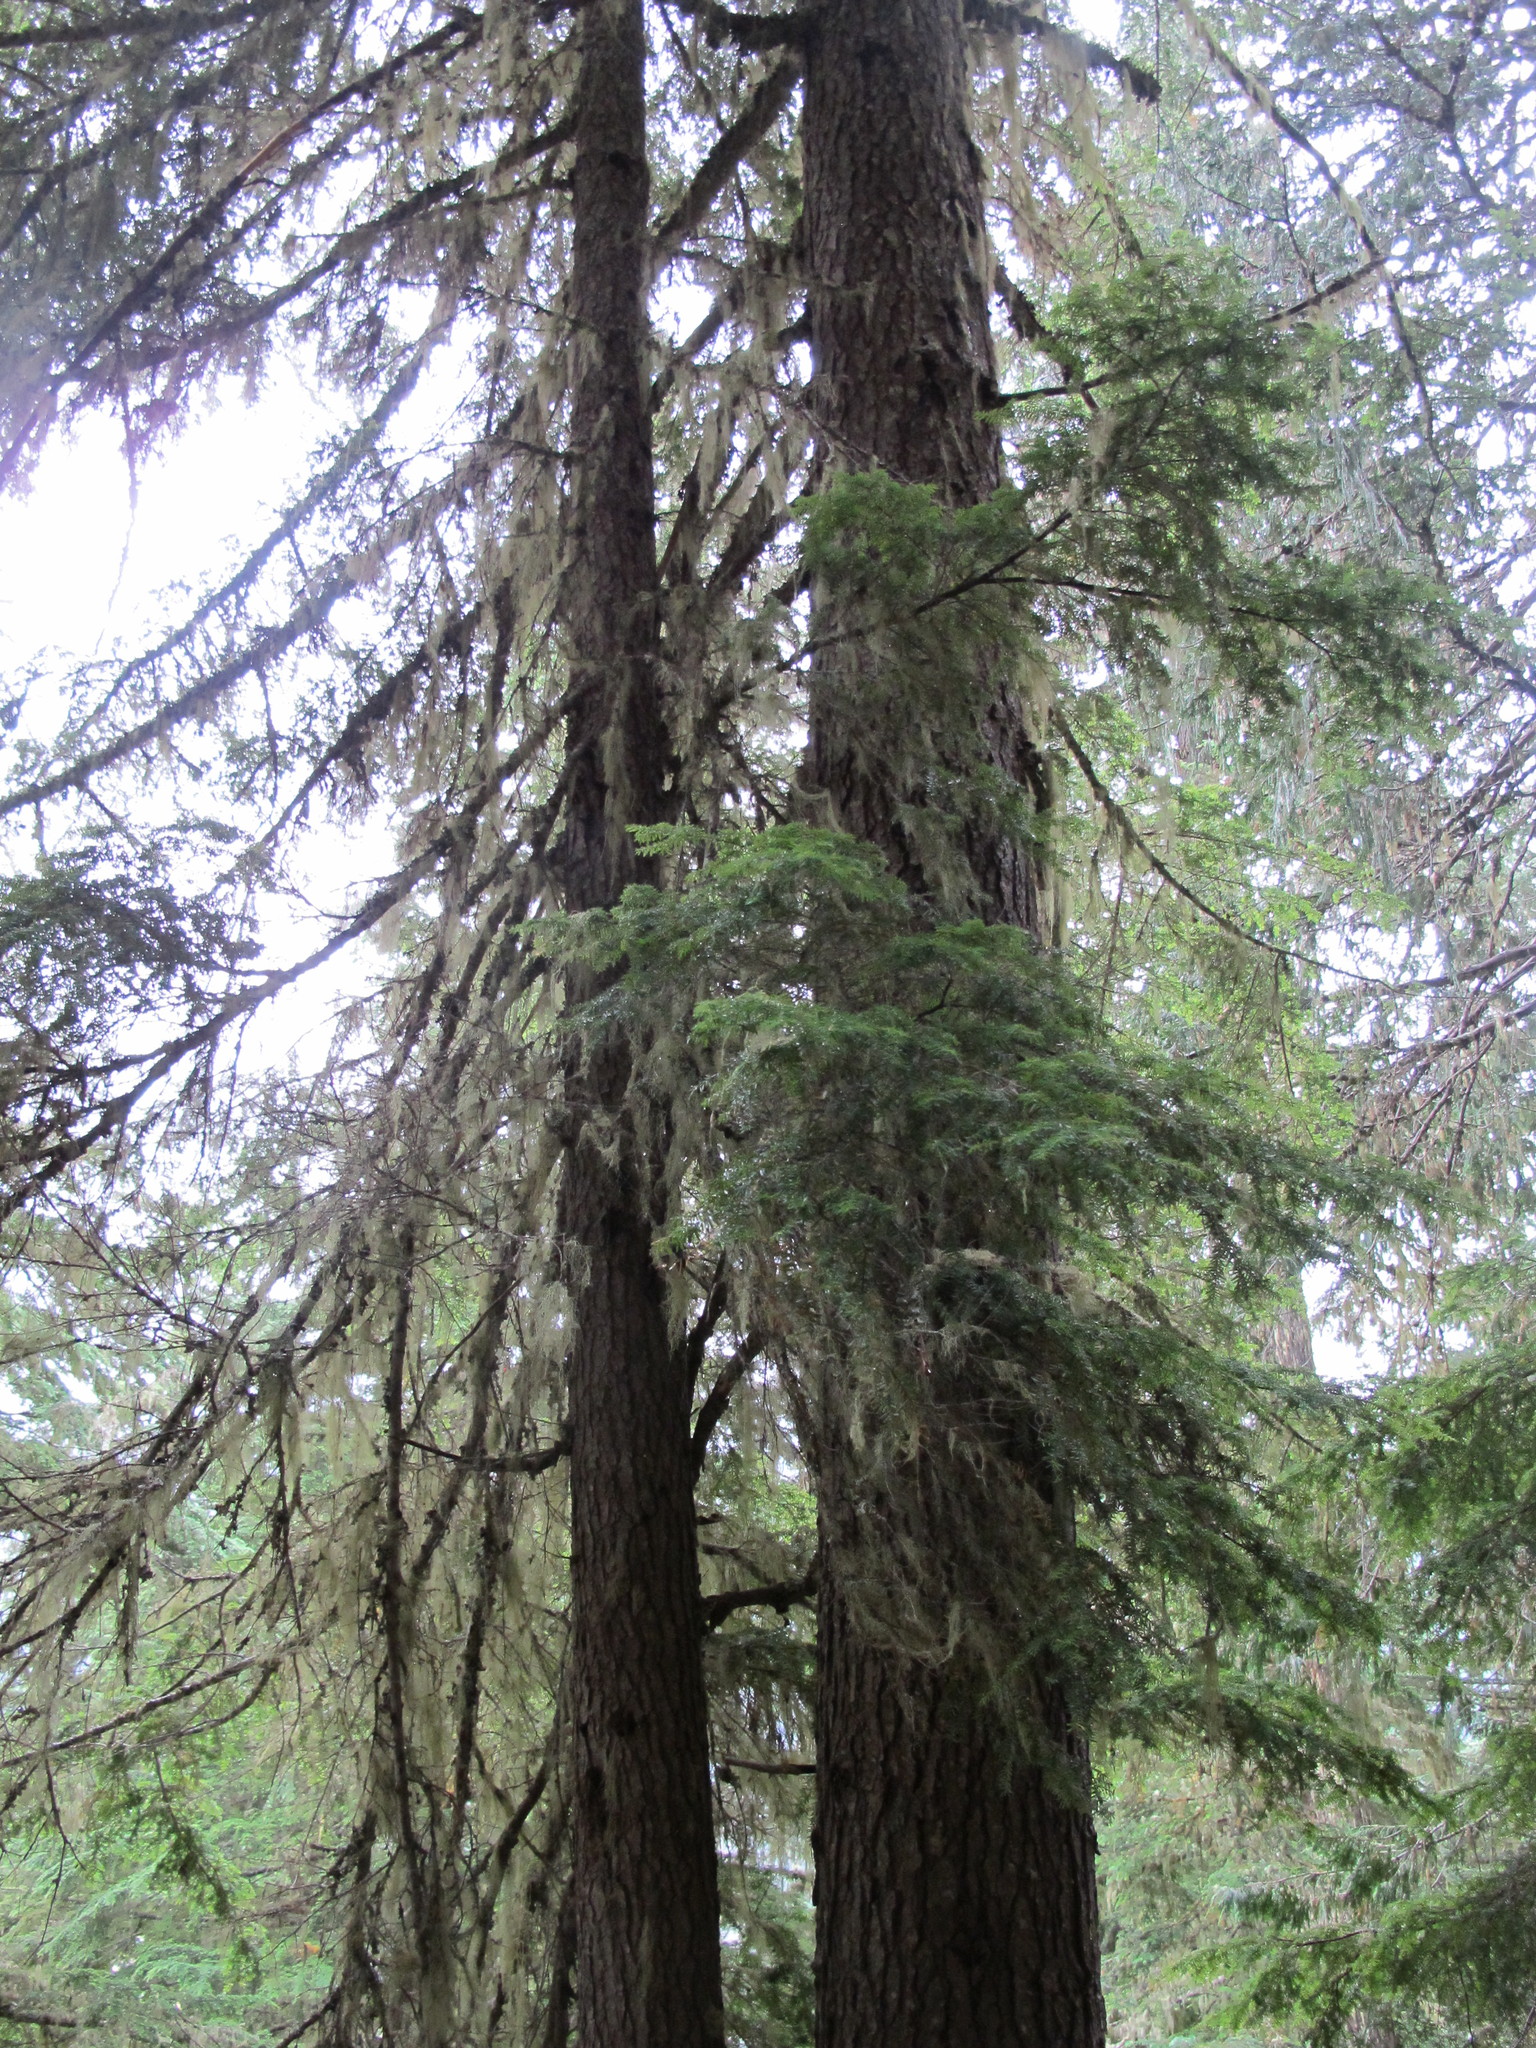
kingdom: Plantae
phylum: Tracheophyta
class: Pinopsida
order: Pinales
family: Pinaceae
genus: Tsuga
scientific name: Tsuga heterophylla
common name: Western hemlock
